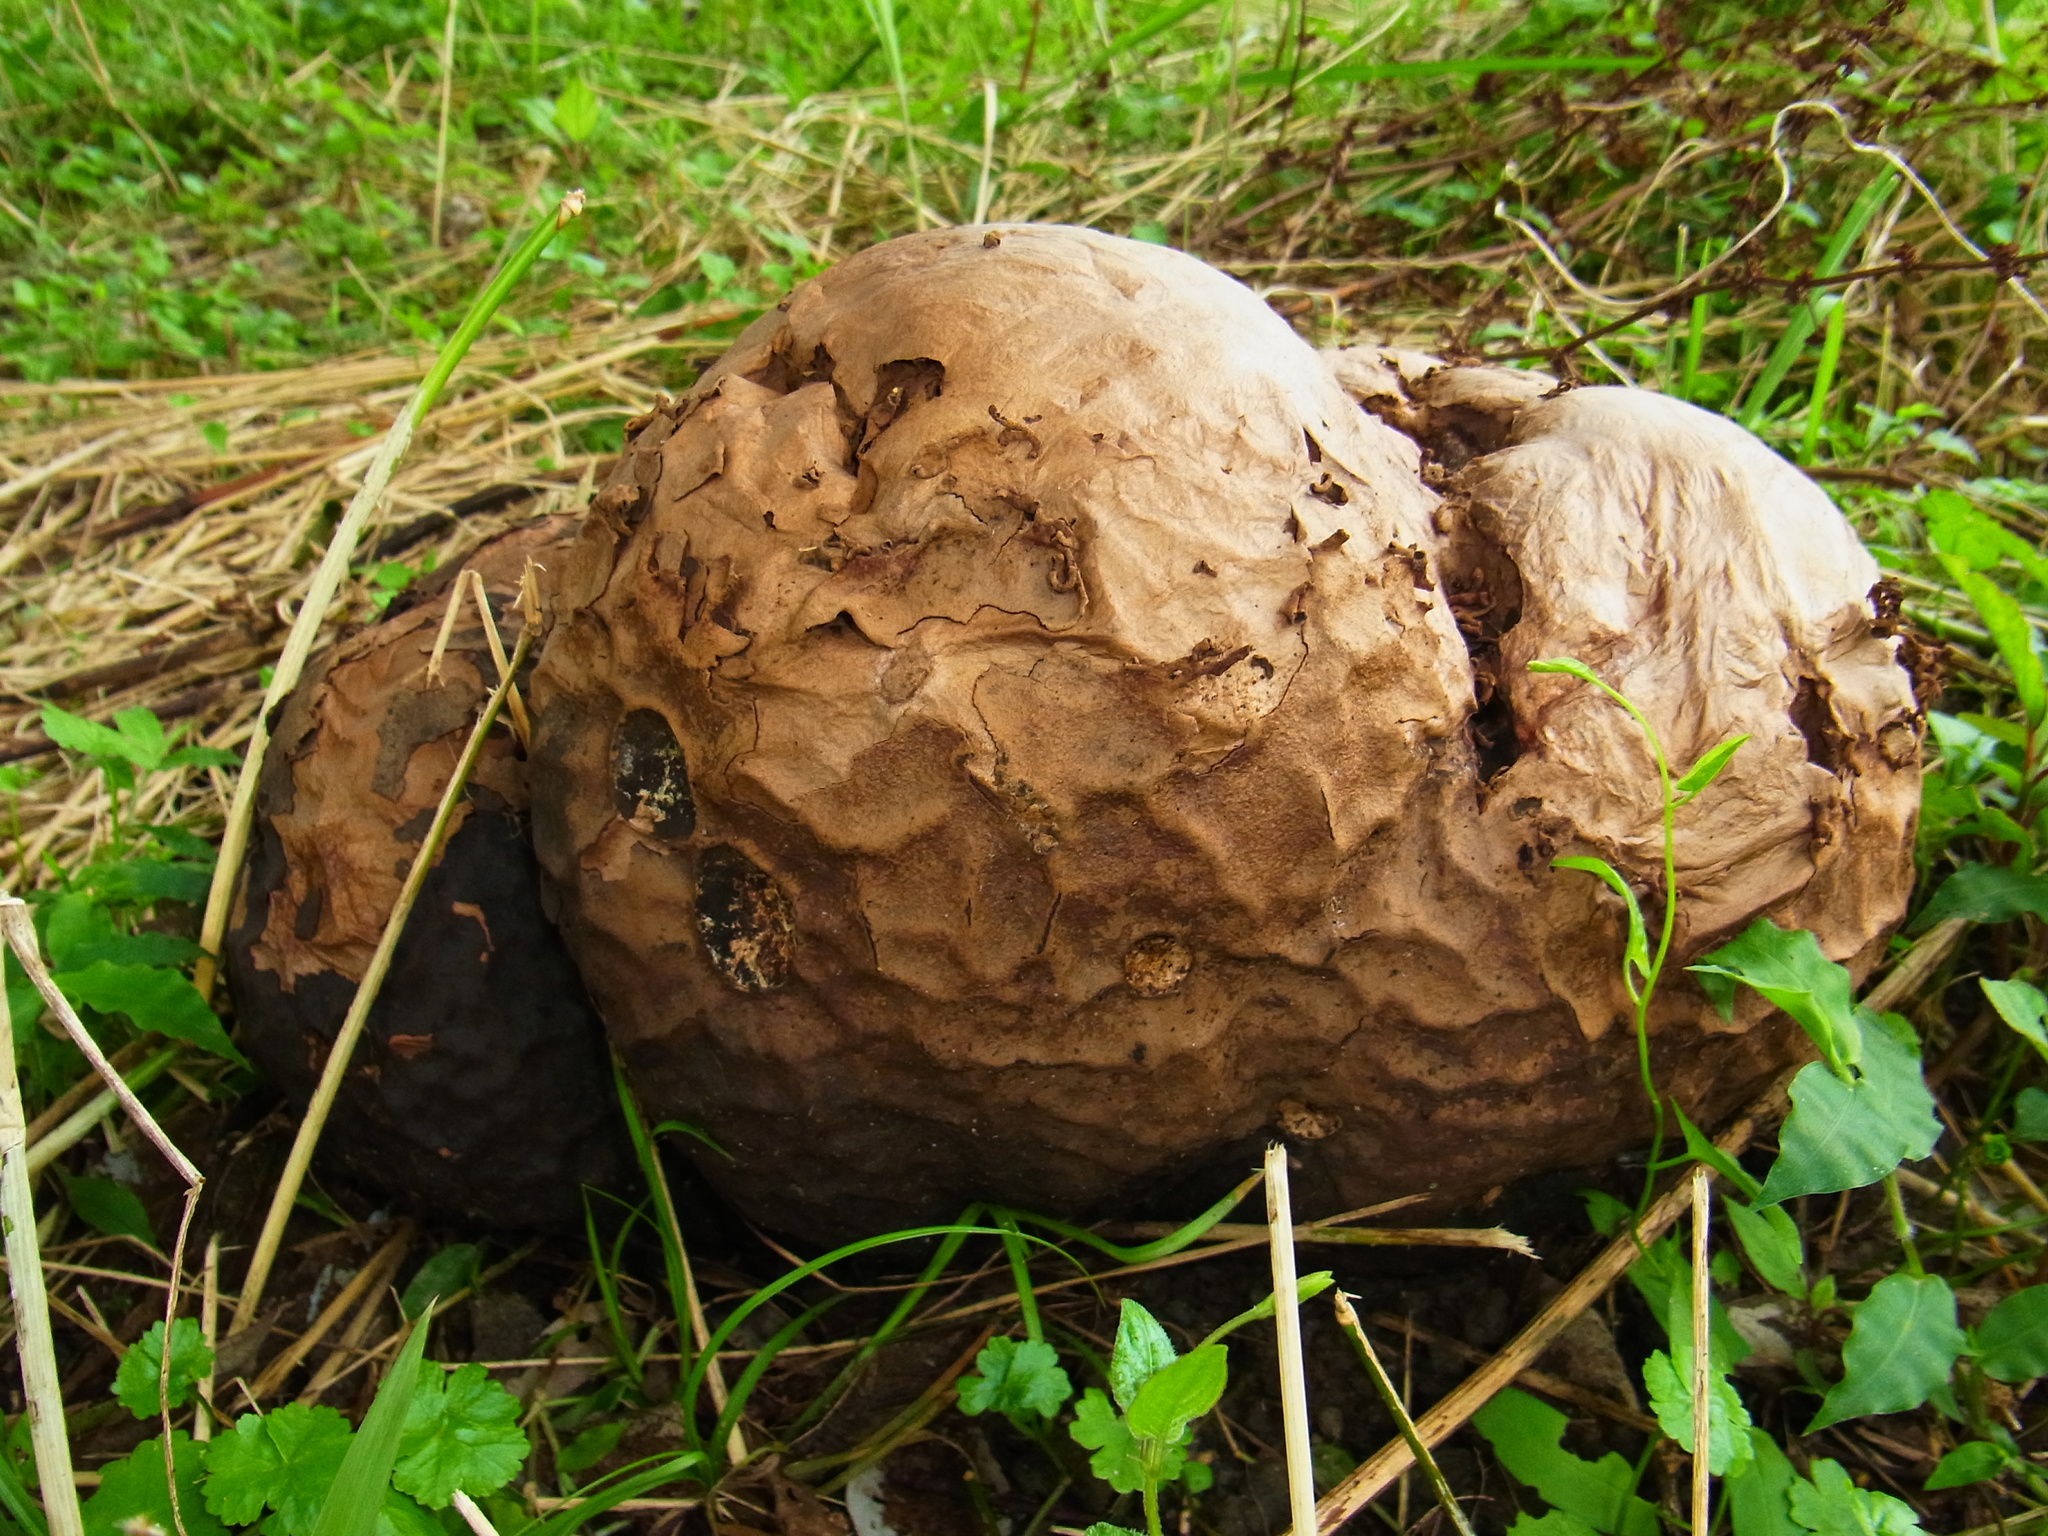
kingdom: Fungi
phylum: Basidiomycota
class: Agaricomycetes
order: Agaricales
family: Lycoperdaceae
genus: Calvatia
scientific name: Calvatia nipponica
